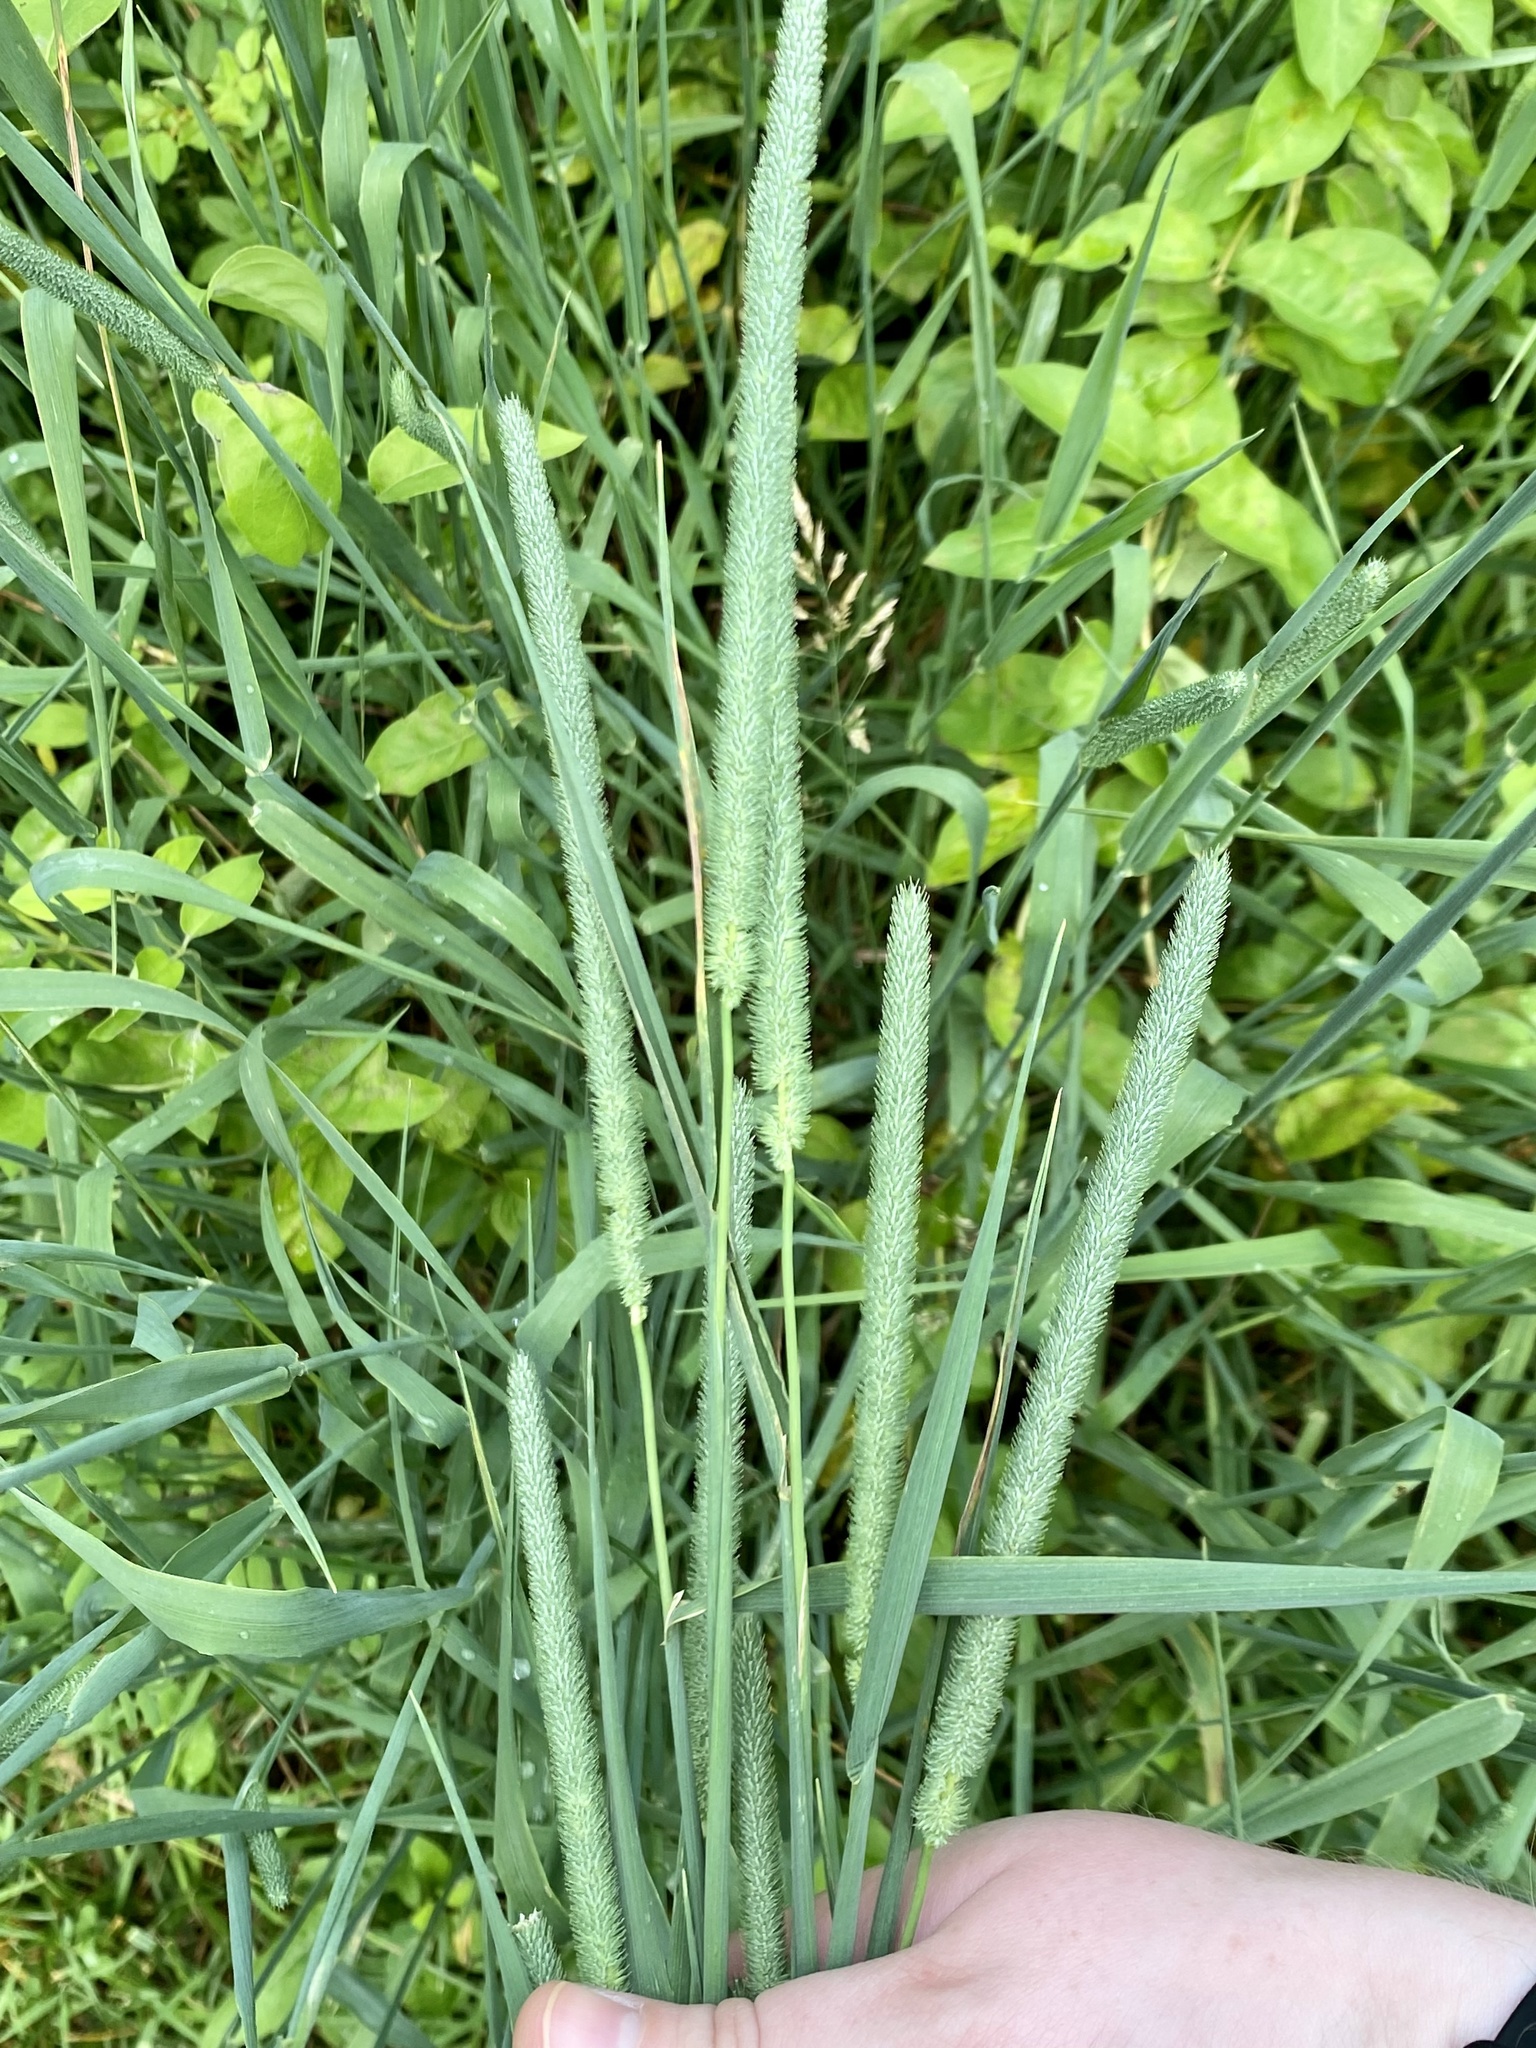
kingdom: Plantae
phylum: Tracheophyta
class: Liliopsida
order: Poales
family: Poaceae
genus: Phleum
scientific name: Phleum pratense
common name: Timothy grass
